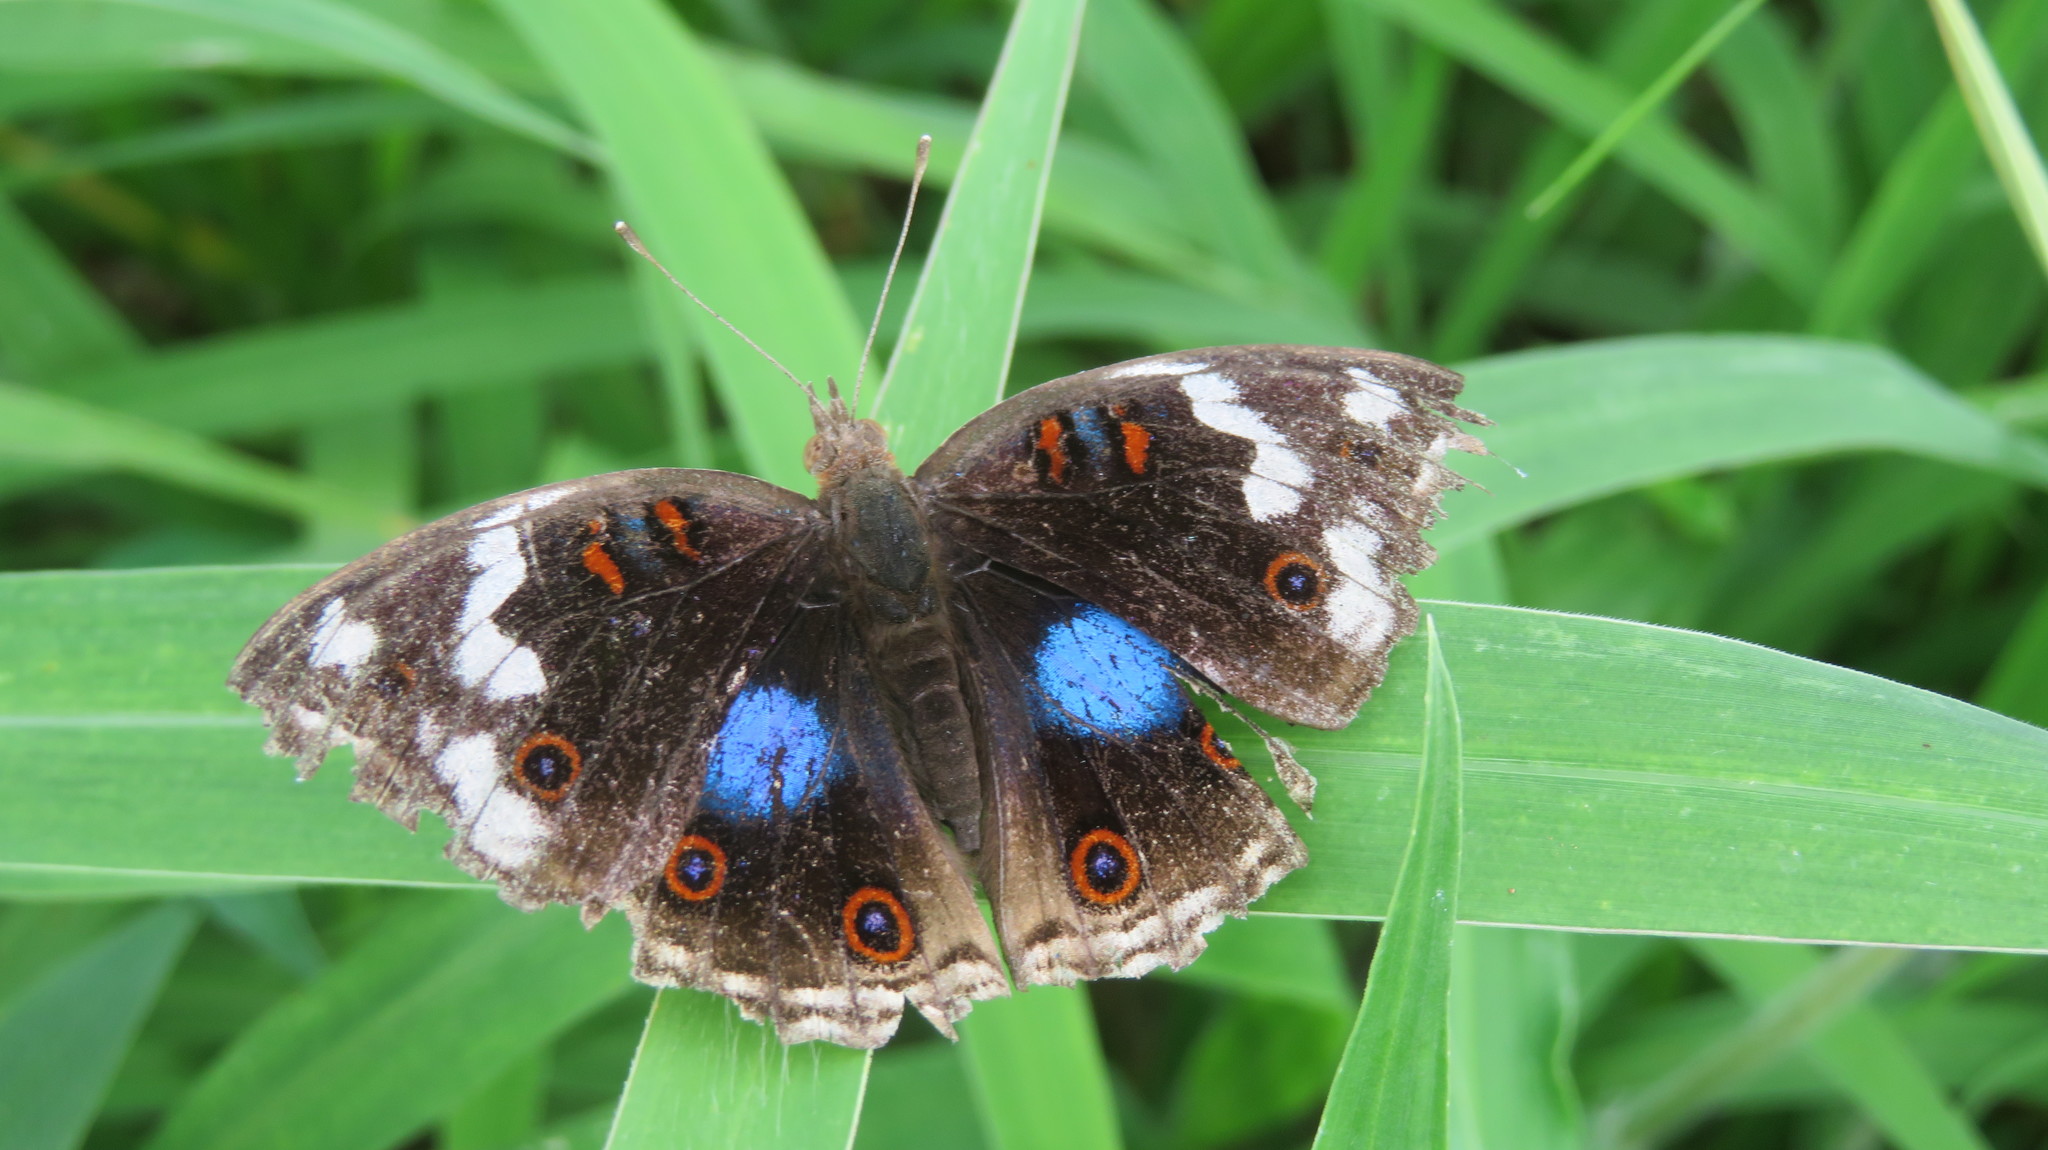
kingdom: Animalia
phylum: Arthropoda
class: Insecta
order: Lepidoptera
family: Nymphalidae
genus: Junonia
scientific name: Junonia oenone
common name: Dark blue pansy
